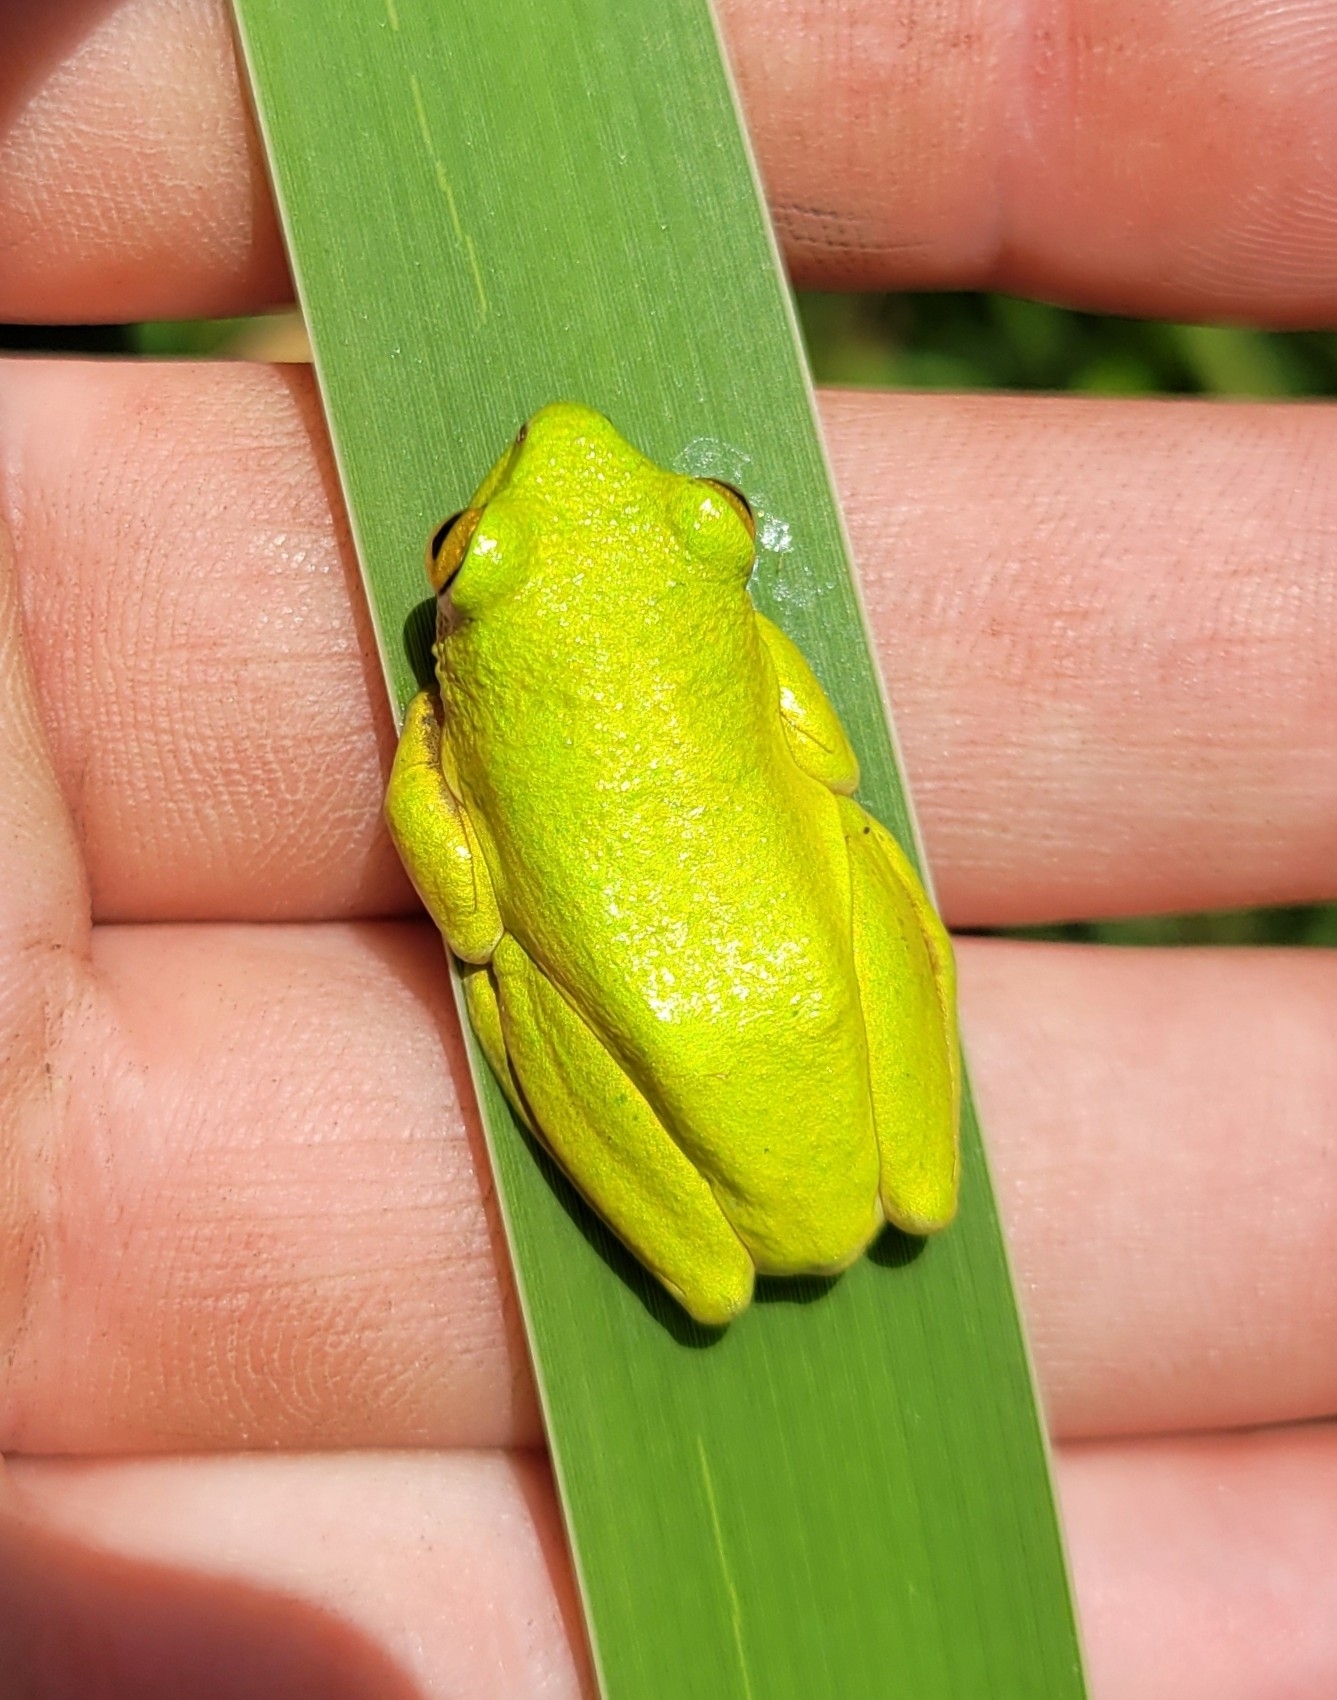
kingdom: Animalia
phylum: Chordata
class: Amphibia
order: Anura
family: Hyperoliidae
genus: Hyperolius
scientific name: Hyperolius tuberilinguis
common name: Tinker reed frog
